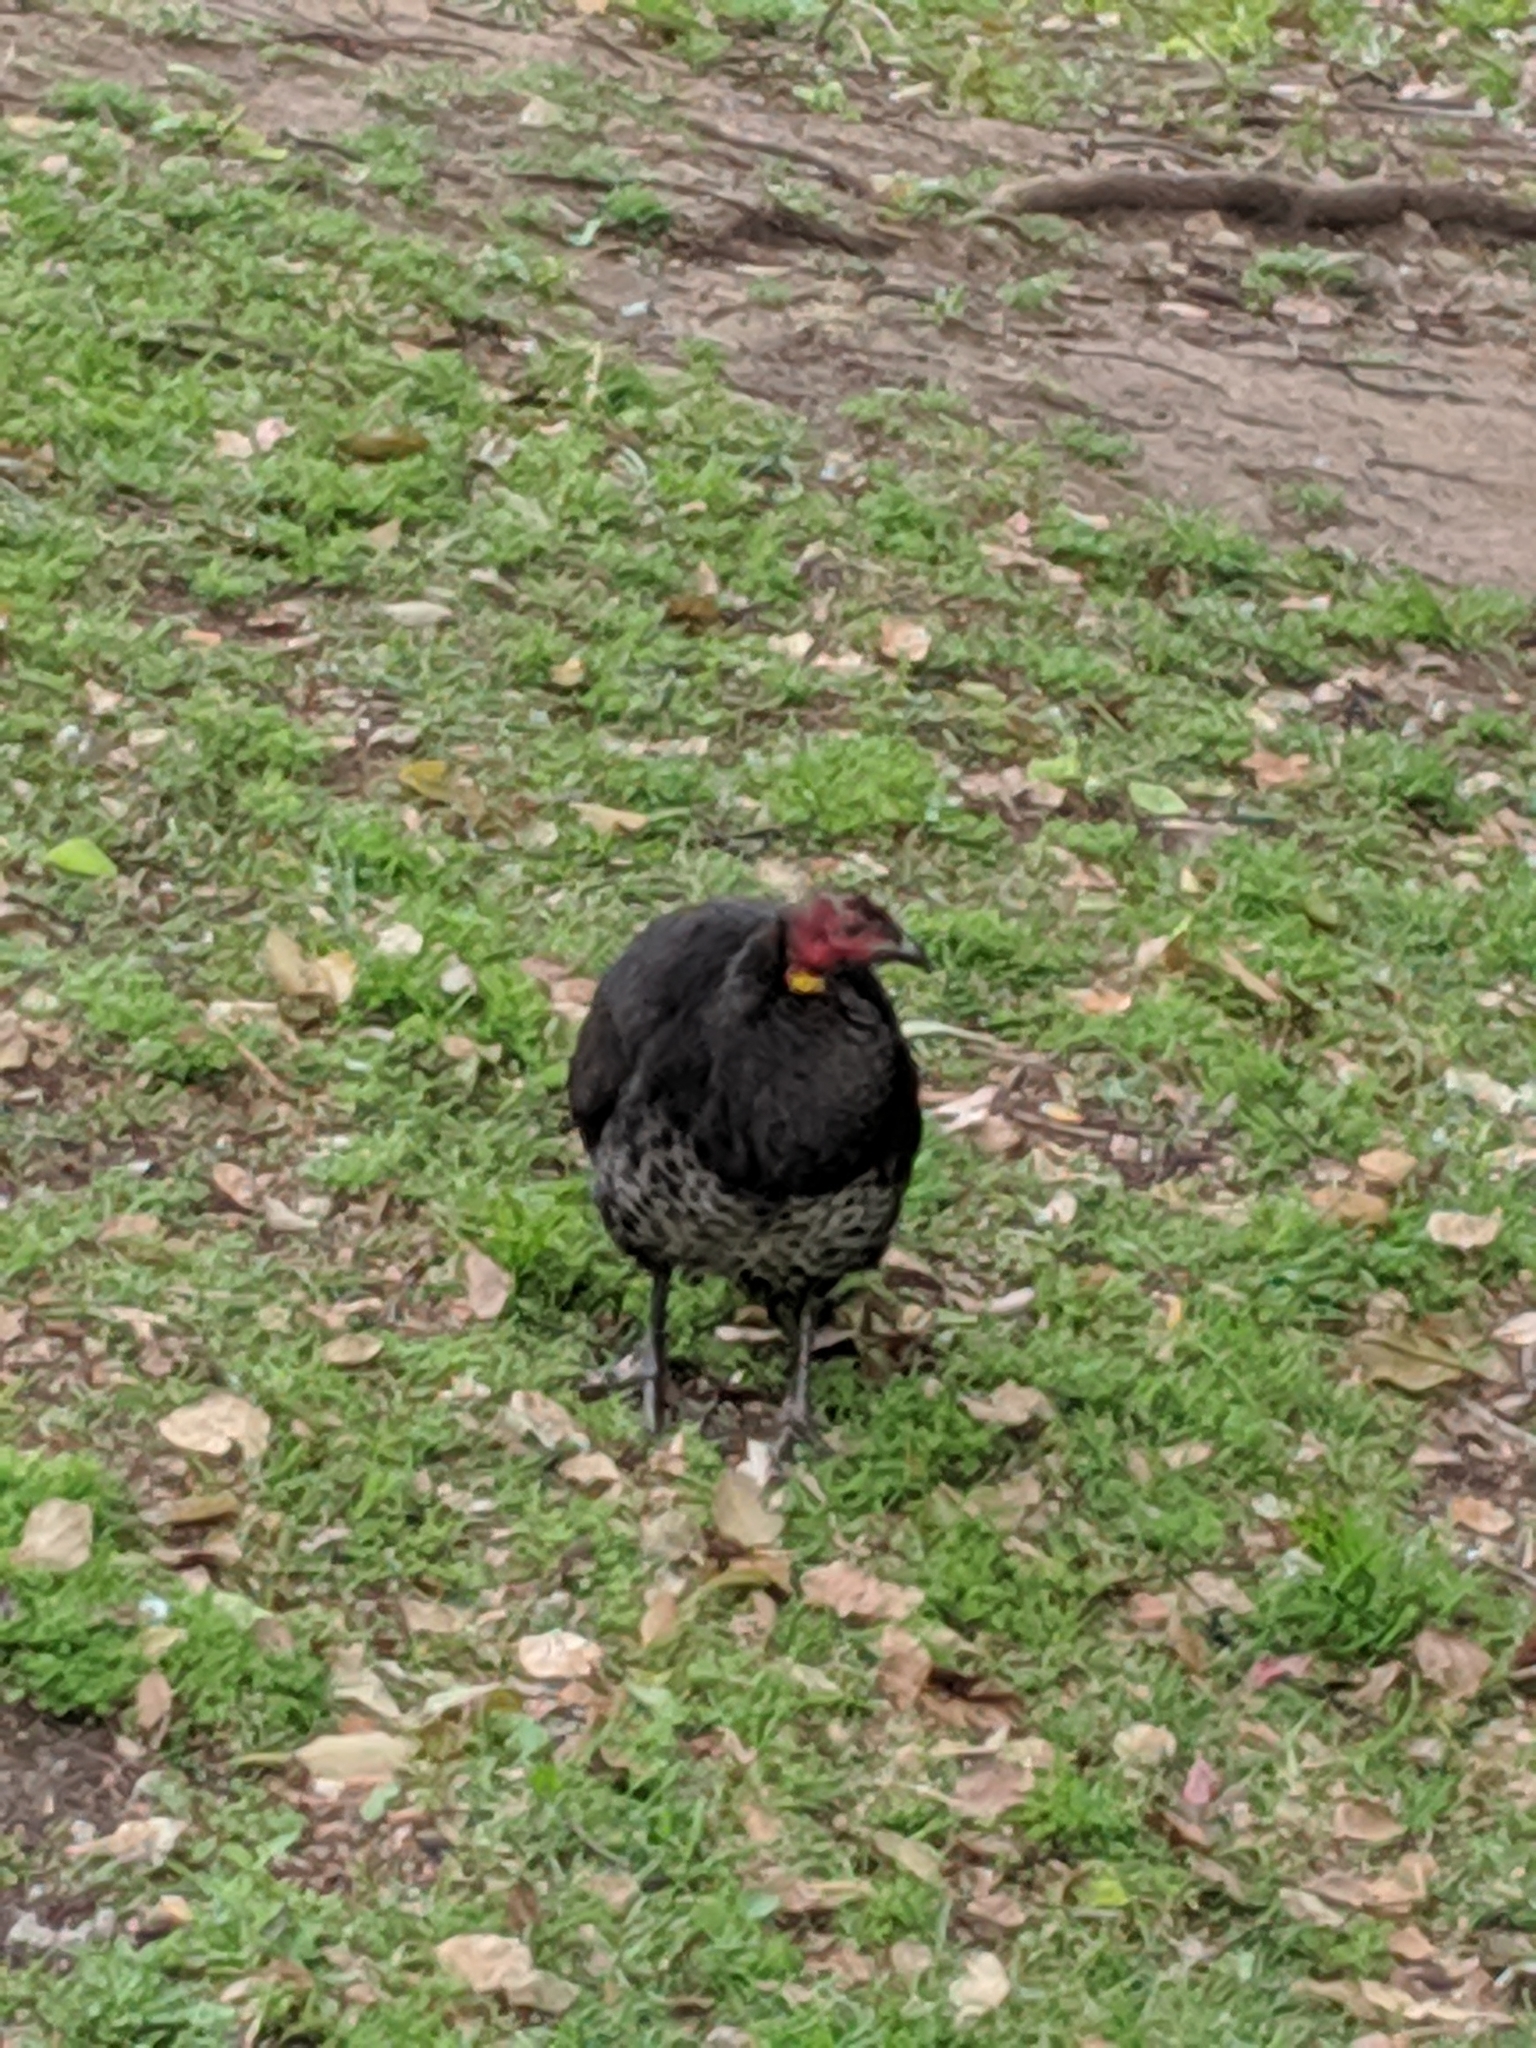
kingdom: Animalia
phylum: Chordata
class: Aves
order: Galliformes
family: Megapodiidae
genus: Alectura
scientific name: Alectura lathami
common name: Australian brushturkey
